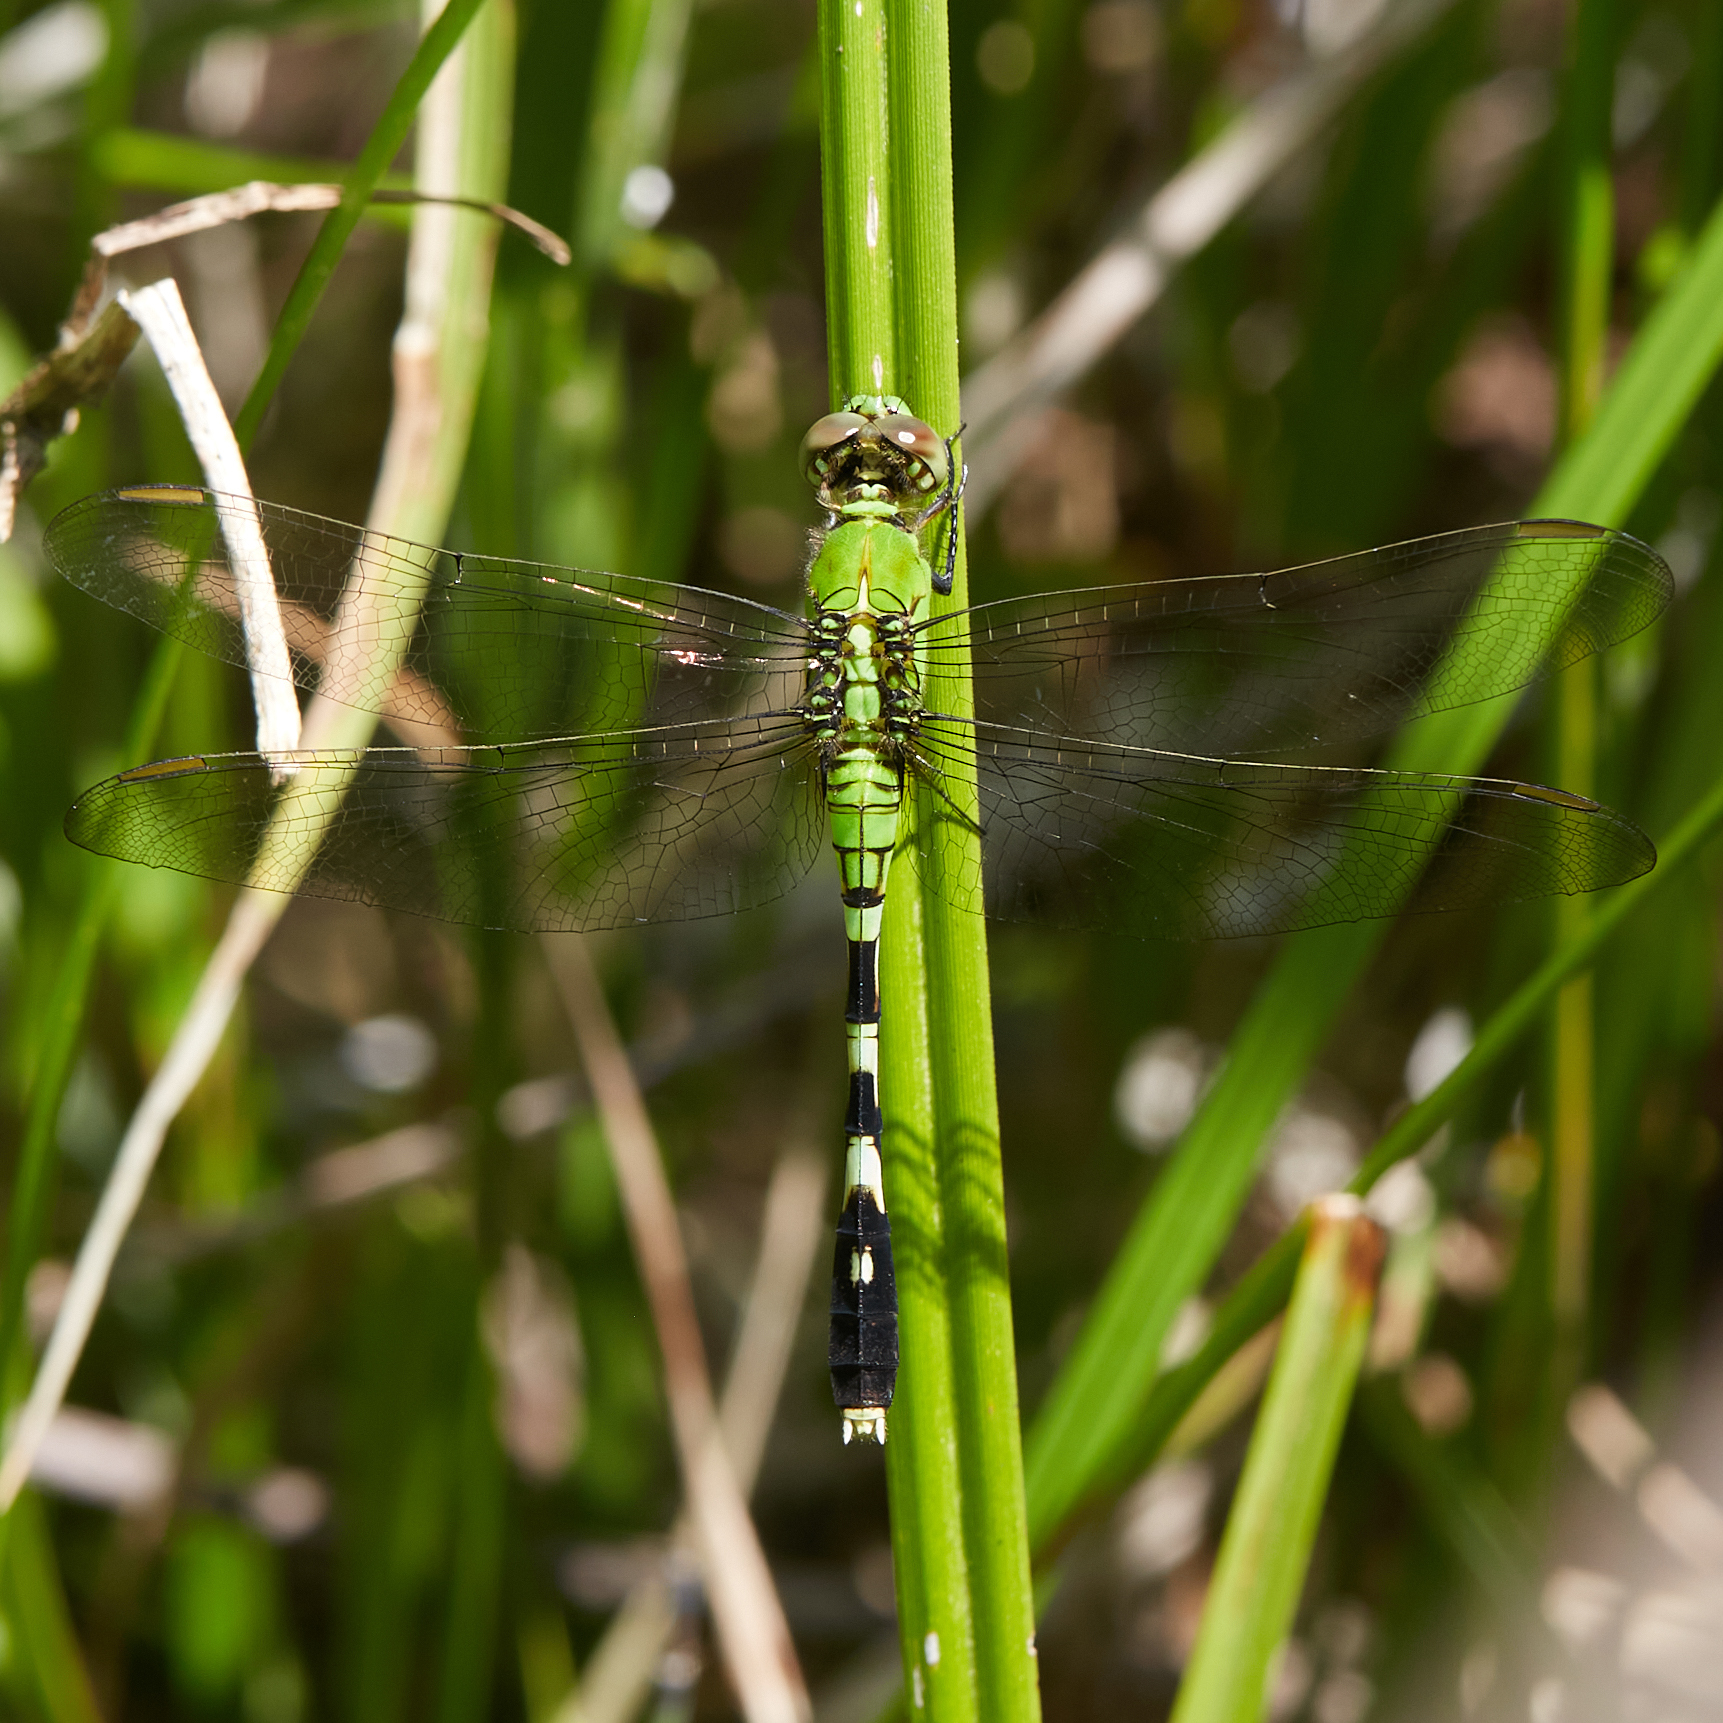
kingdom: Animalia
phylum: Arthropoda
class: Insecta
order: Odonata
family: Libellulidae
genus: Erythemis
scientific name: Erythemis simplicicollis
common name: Eastern pondhawk
